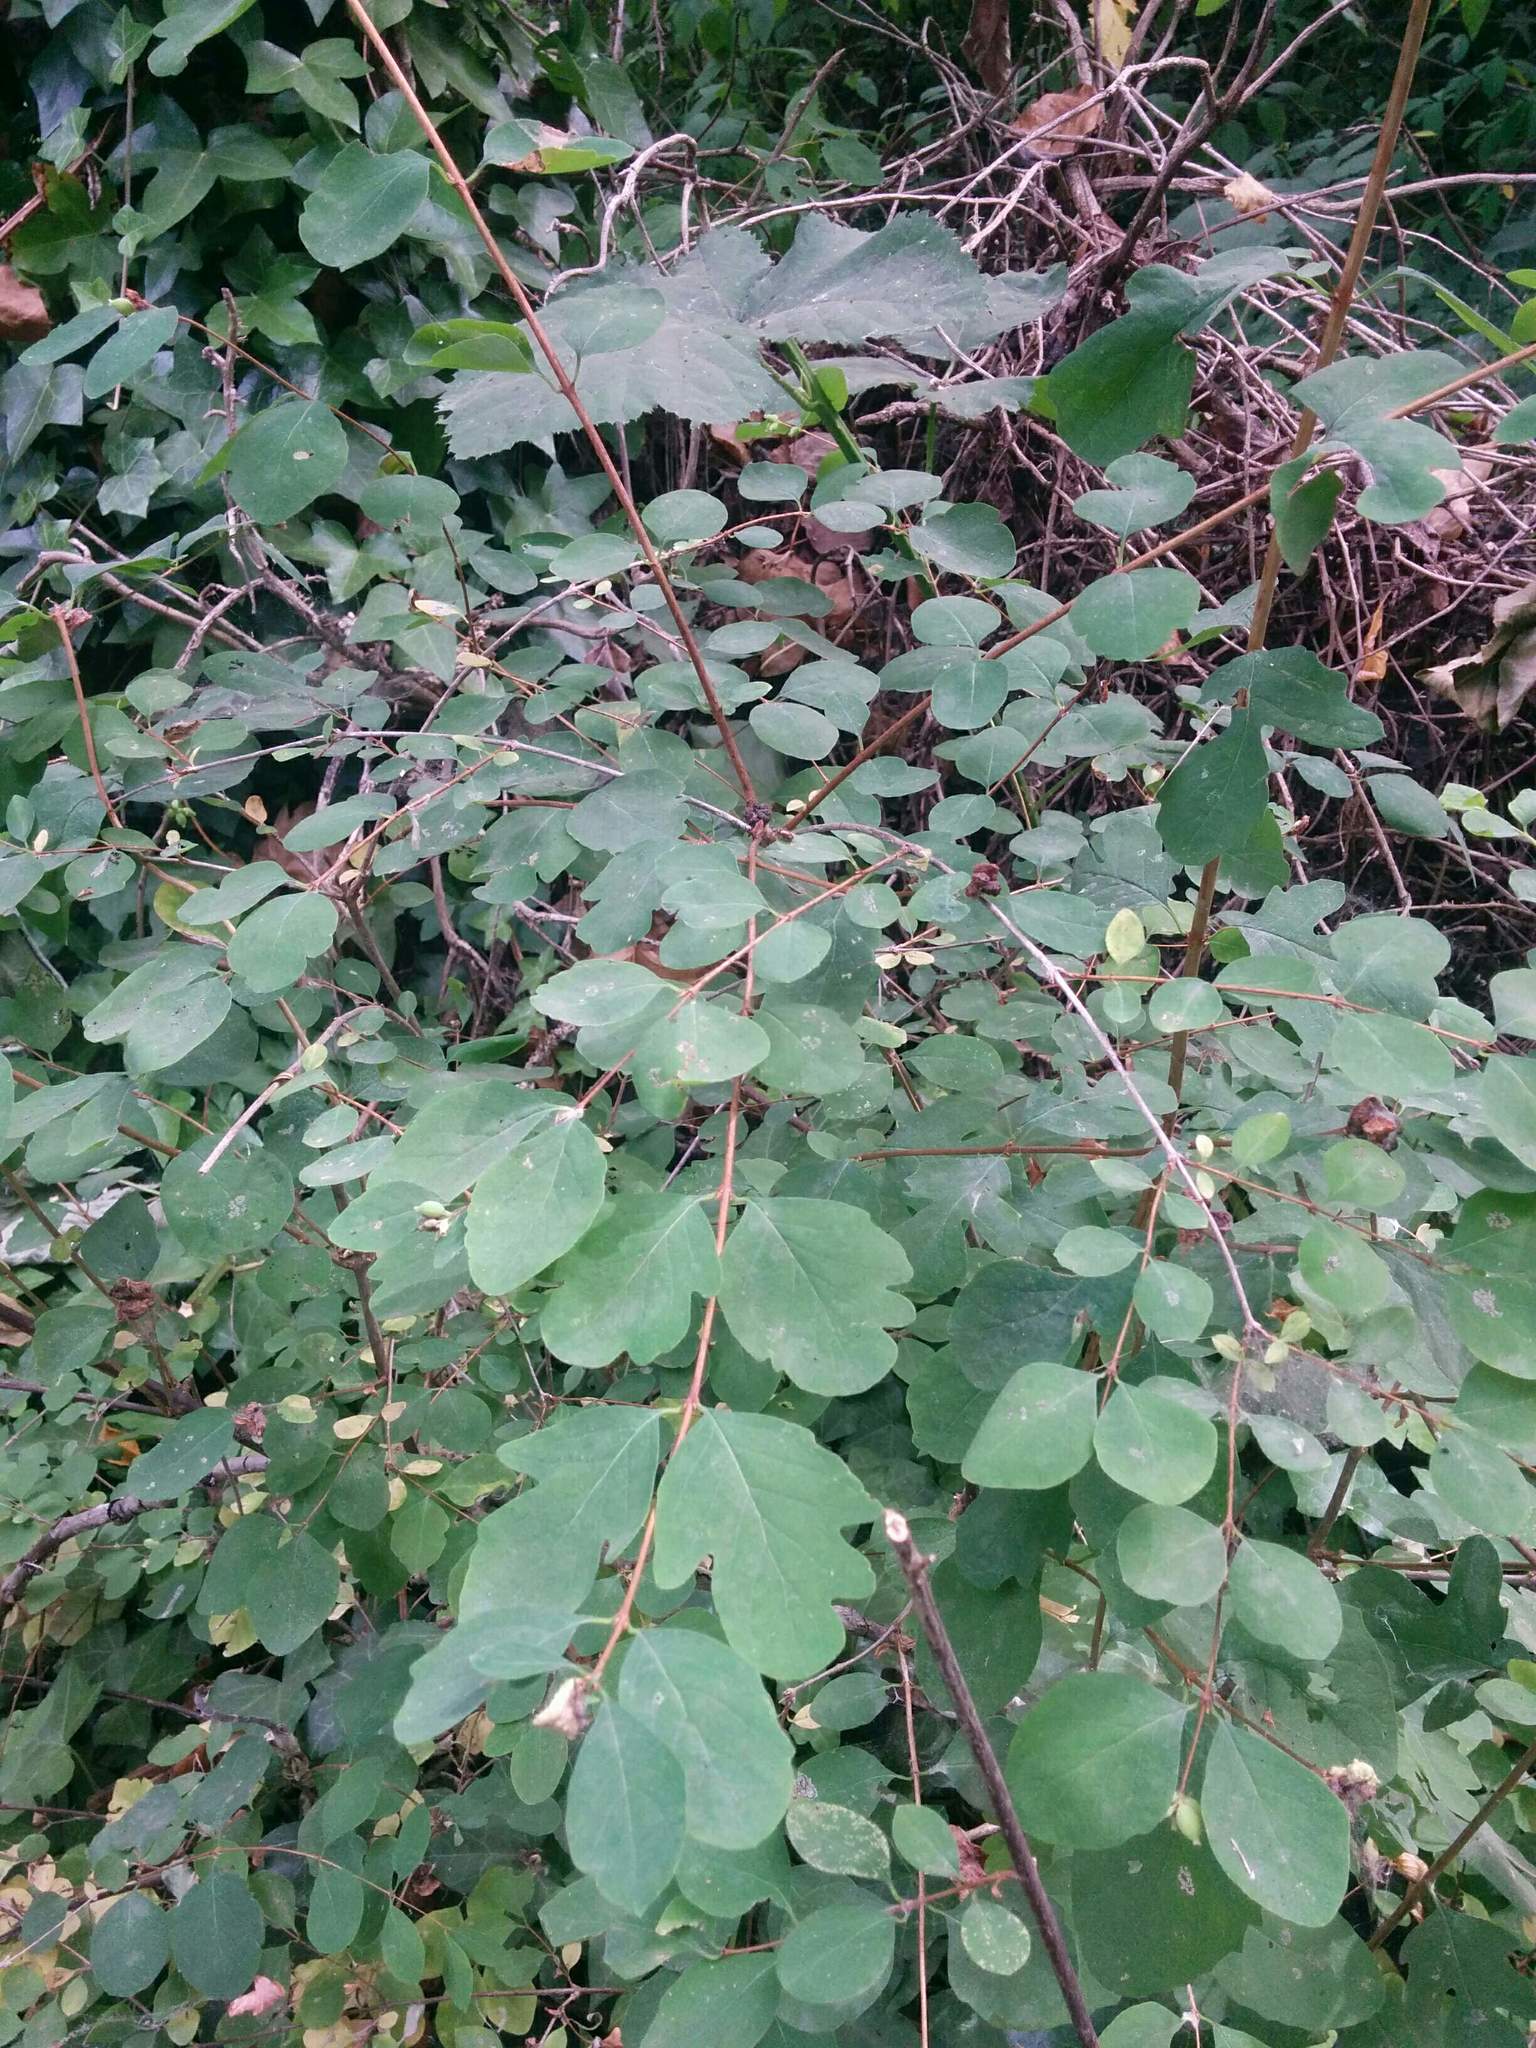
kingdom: Plantae
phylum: Tracheophyta
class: Magnoliopsida
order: Dipsacales
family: Caprifoliaceae
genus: Symphoricarpos
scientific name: Symphoricarpos albus
